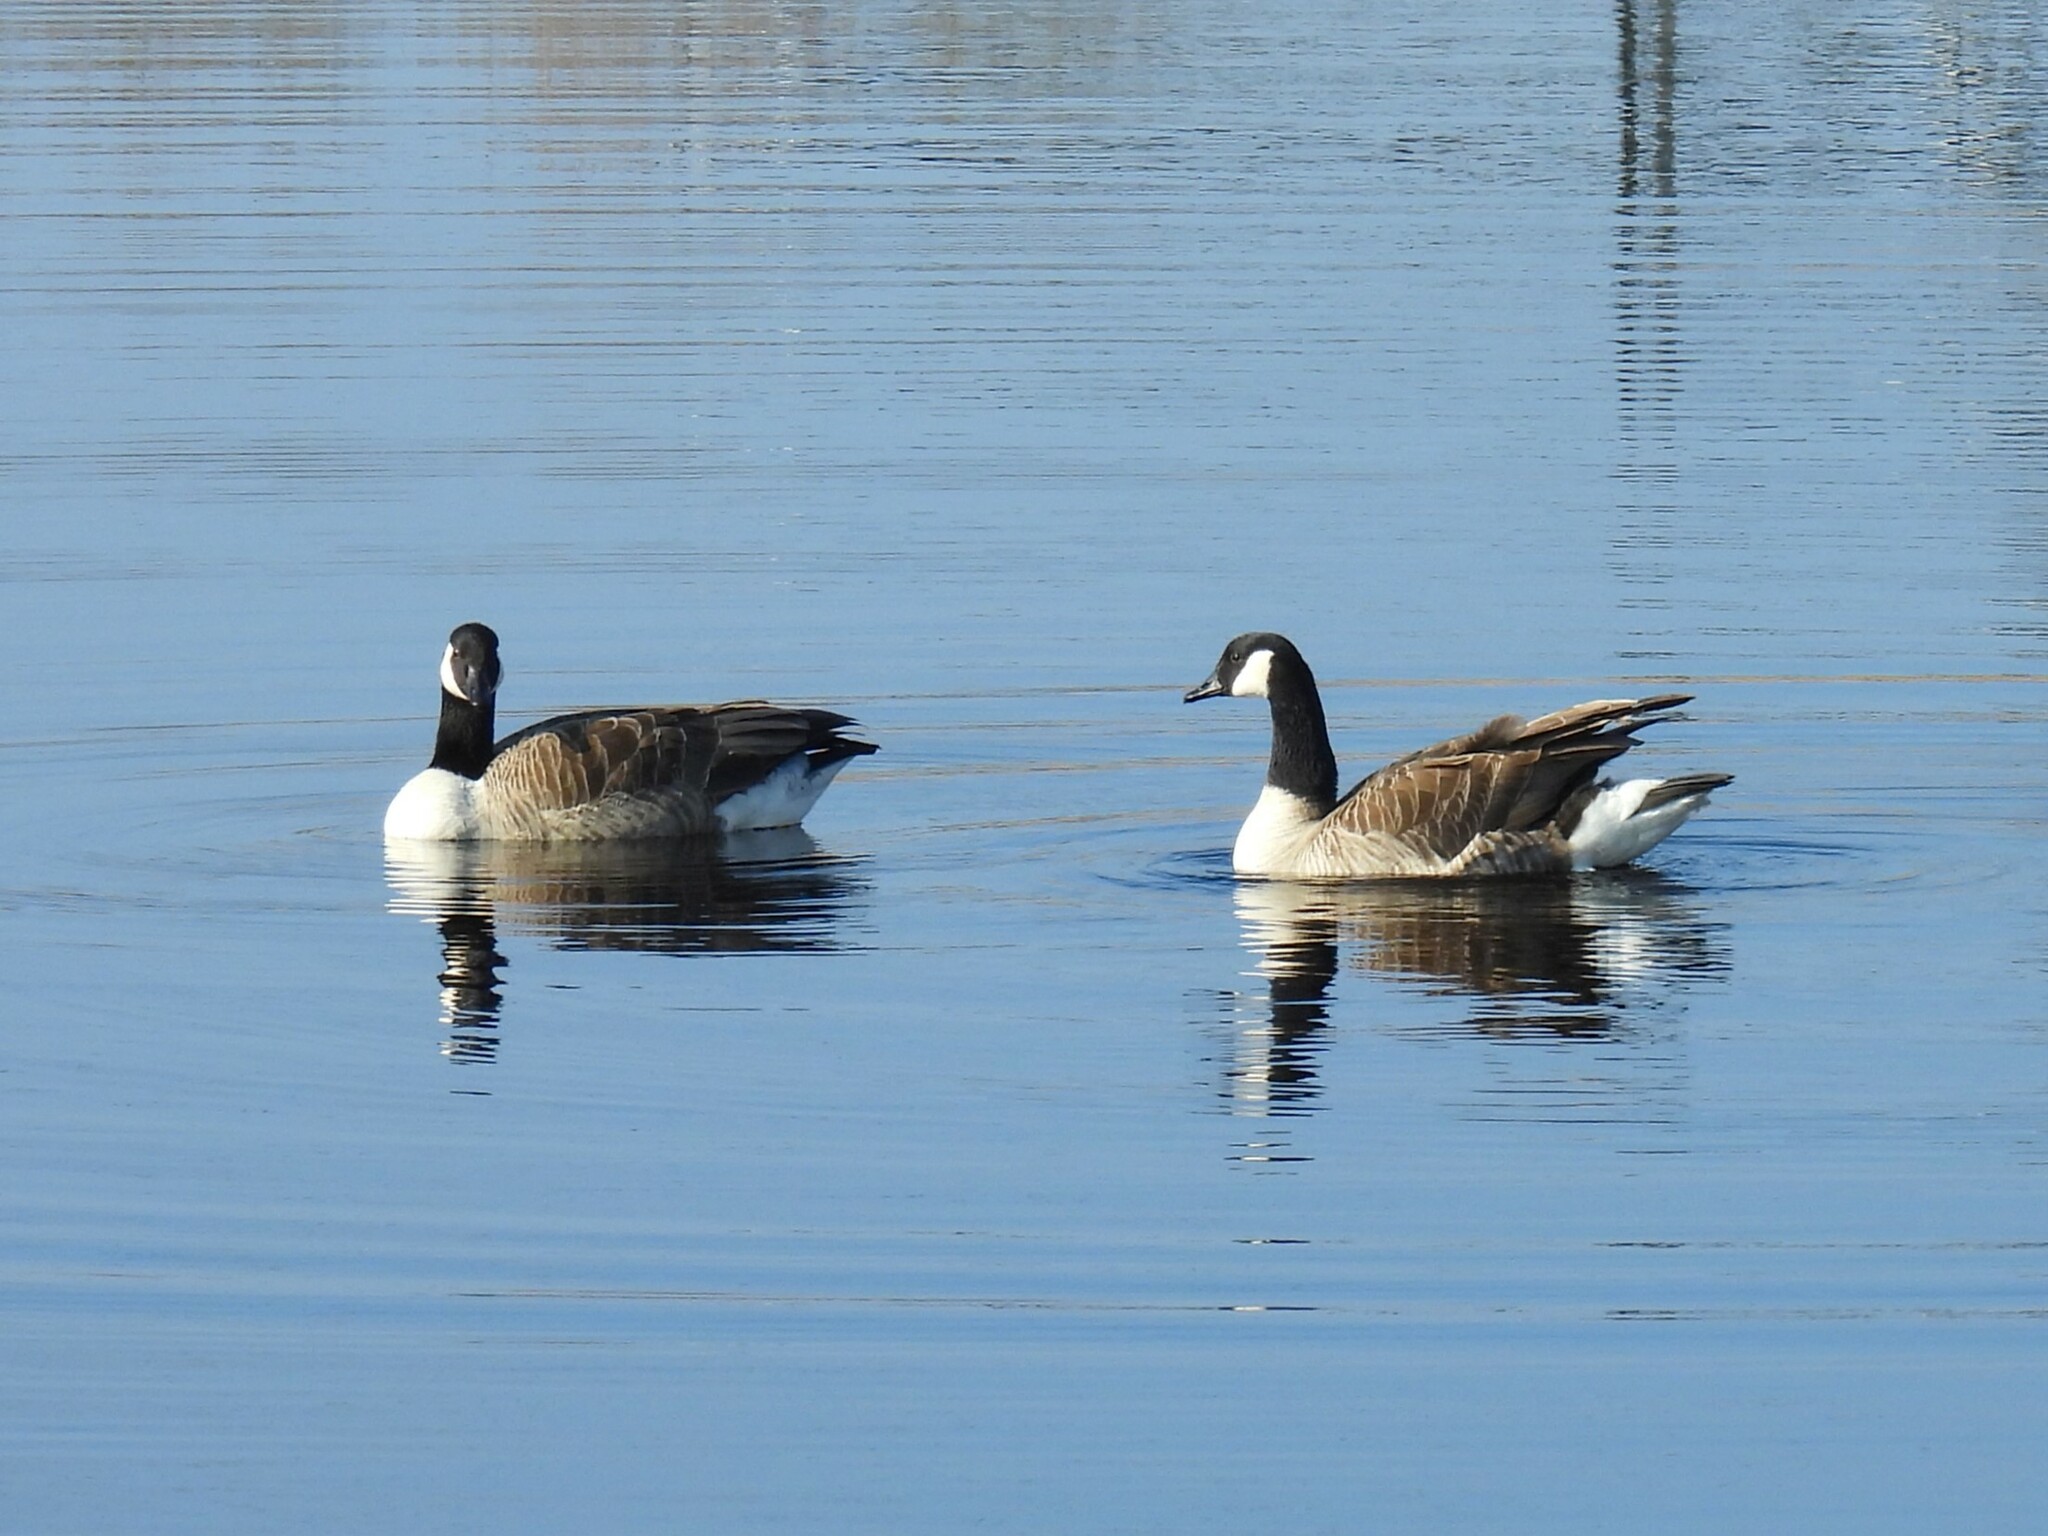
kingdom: Animalia
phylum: Chordata
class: Aves
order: Anseriformes
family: Anatidae
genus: Branta
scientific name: Branta canadensis
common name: Canada goose
